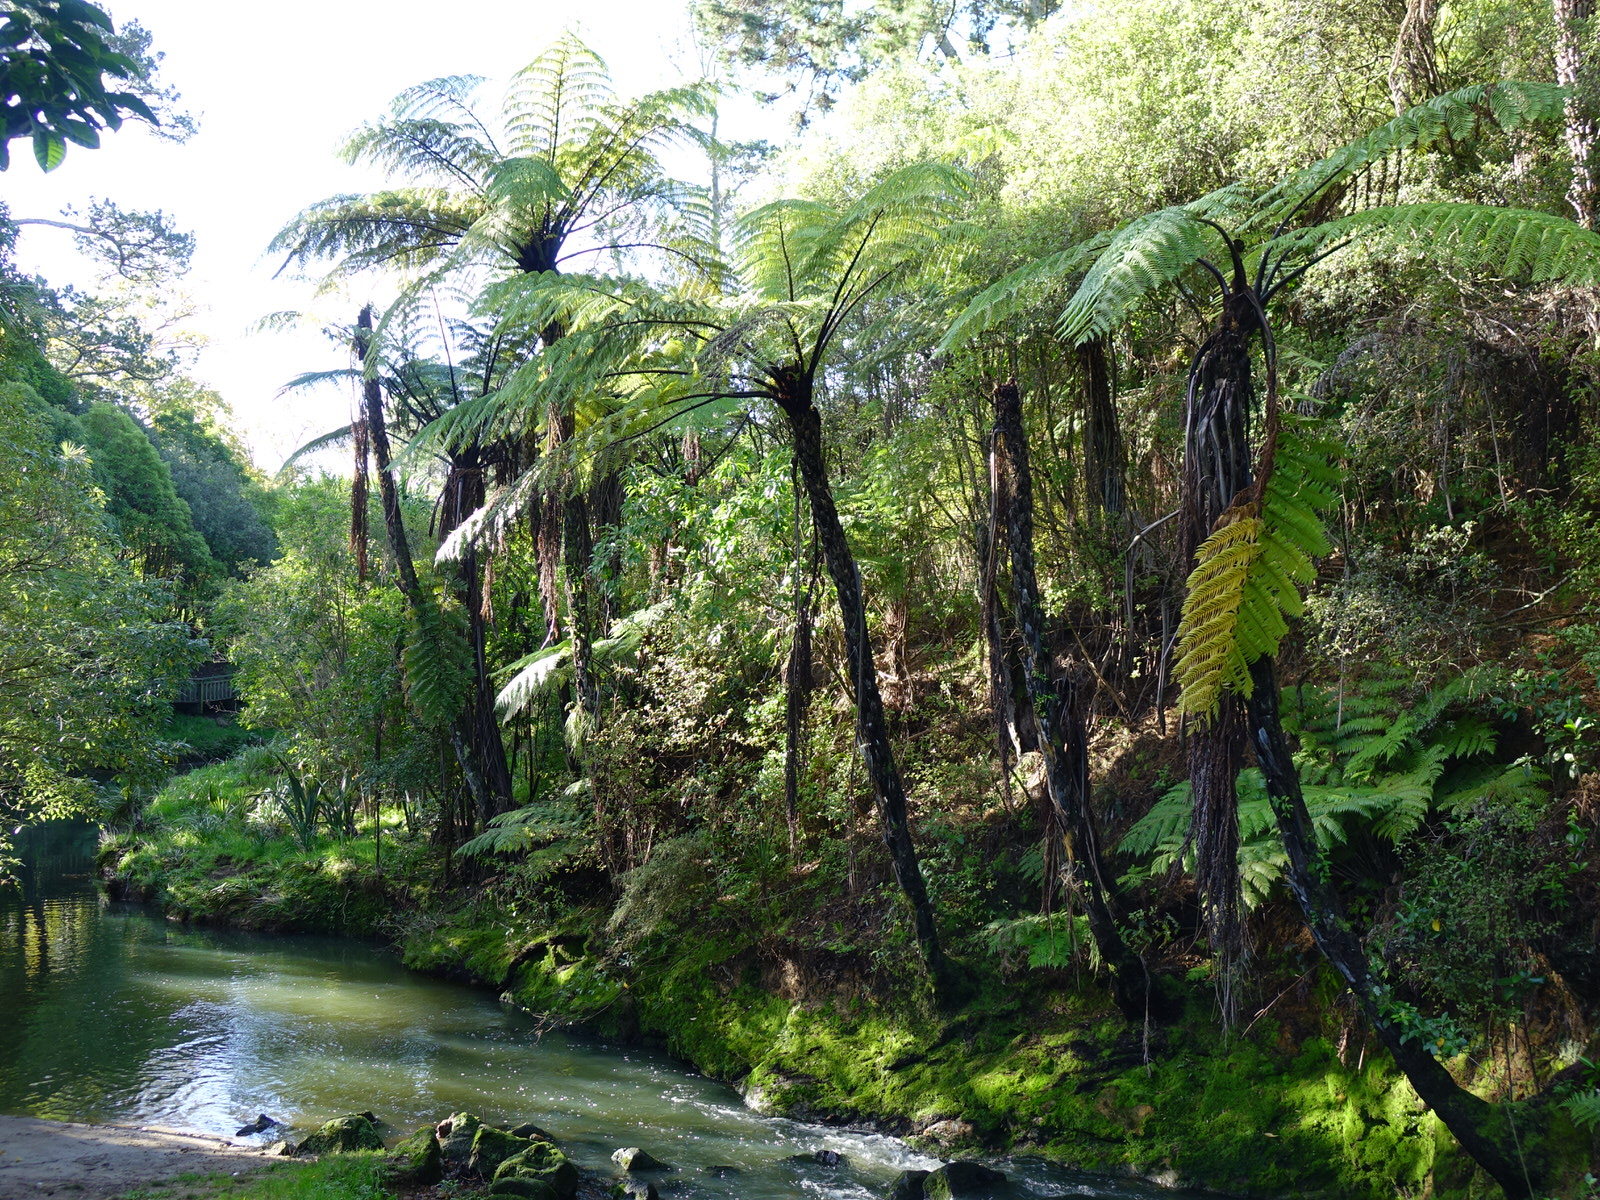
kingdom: Plantae
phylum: Tracheophyta
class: Polypodiopsida
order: Cyatheales
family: Cyatheaceae
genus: Sphaeropteris
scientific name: Sphaeropteris medullaris
